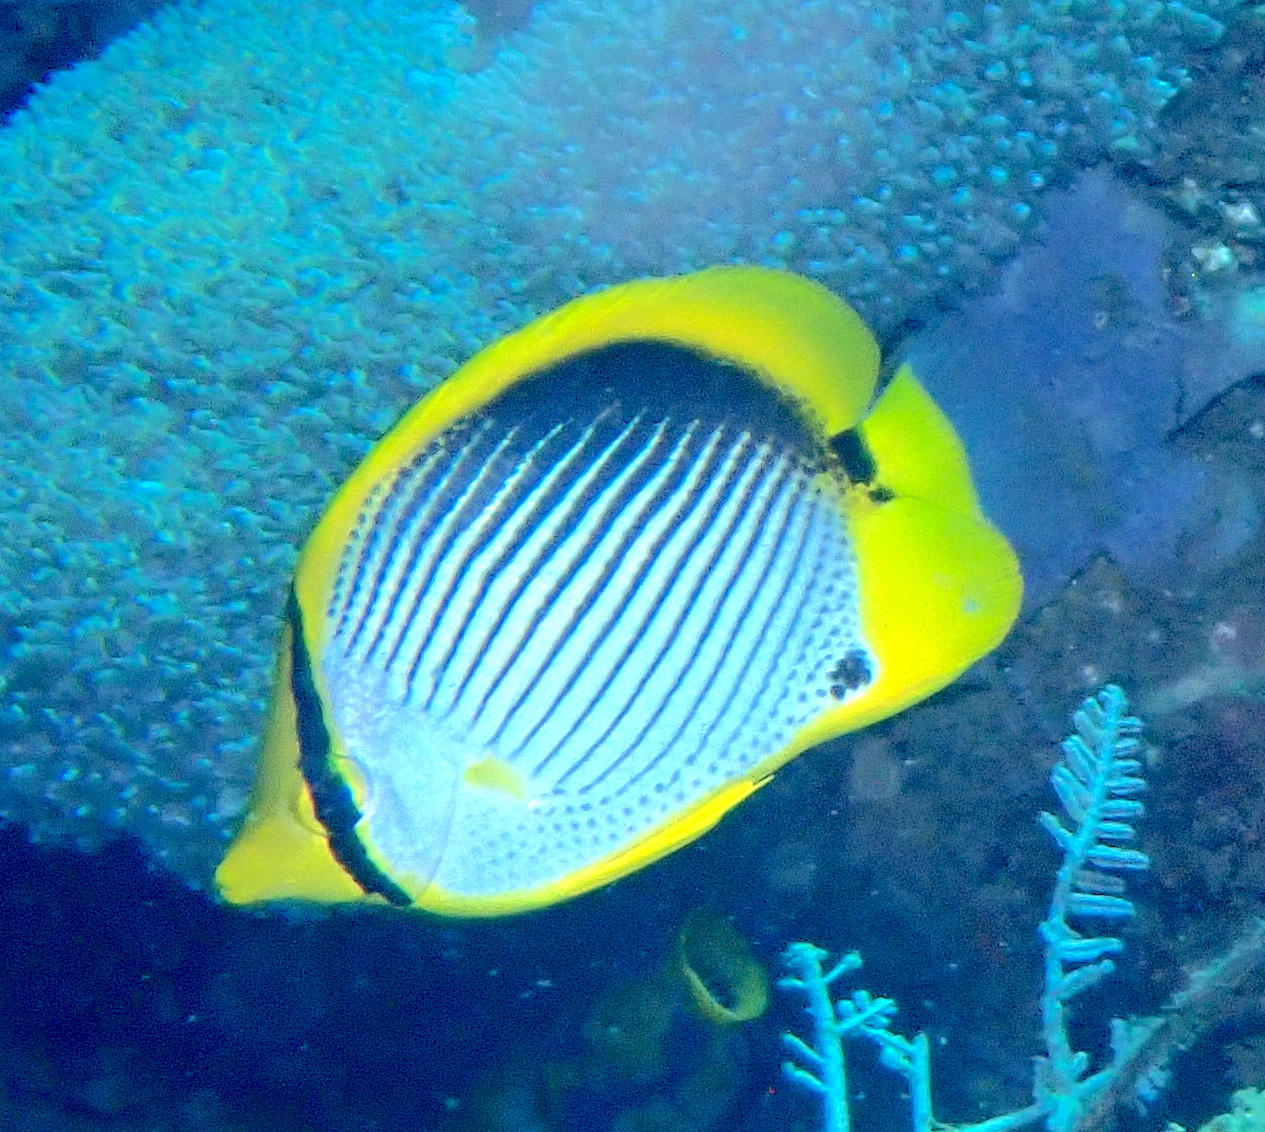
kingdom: Animalia
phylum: Chordata
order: Perciformes
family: Chaetodontidae
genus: Chaetodon
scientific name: Chaetodon melannotus
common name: Blackback butterflyfish
